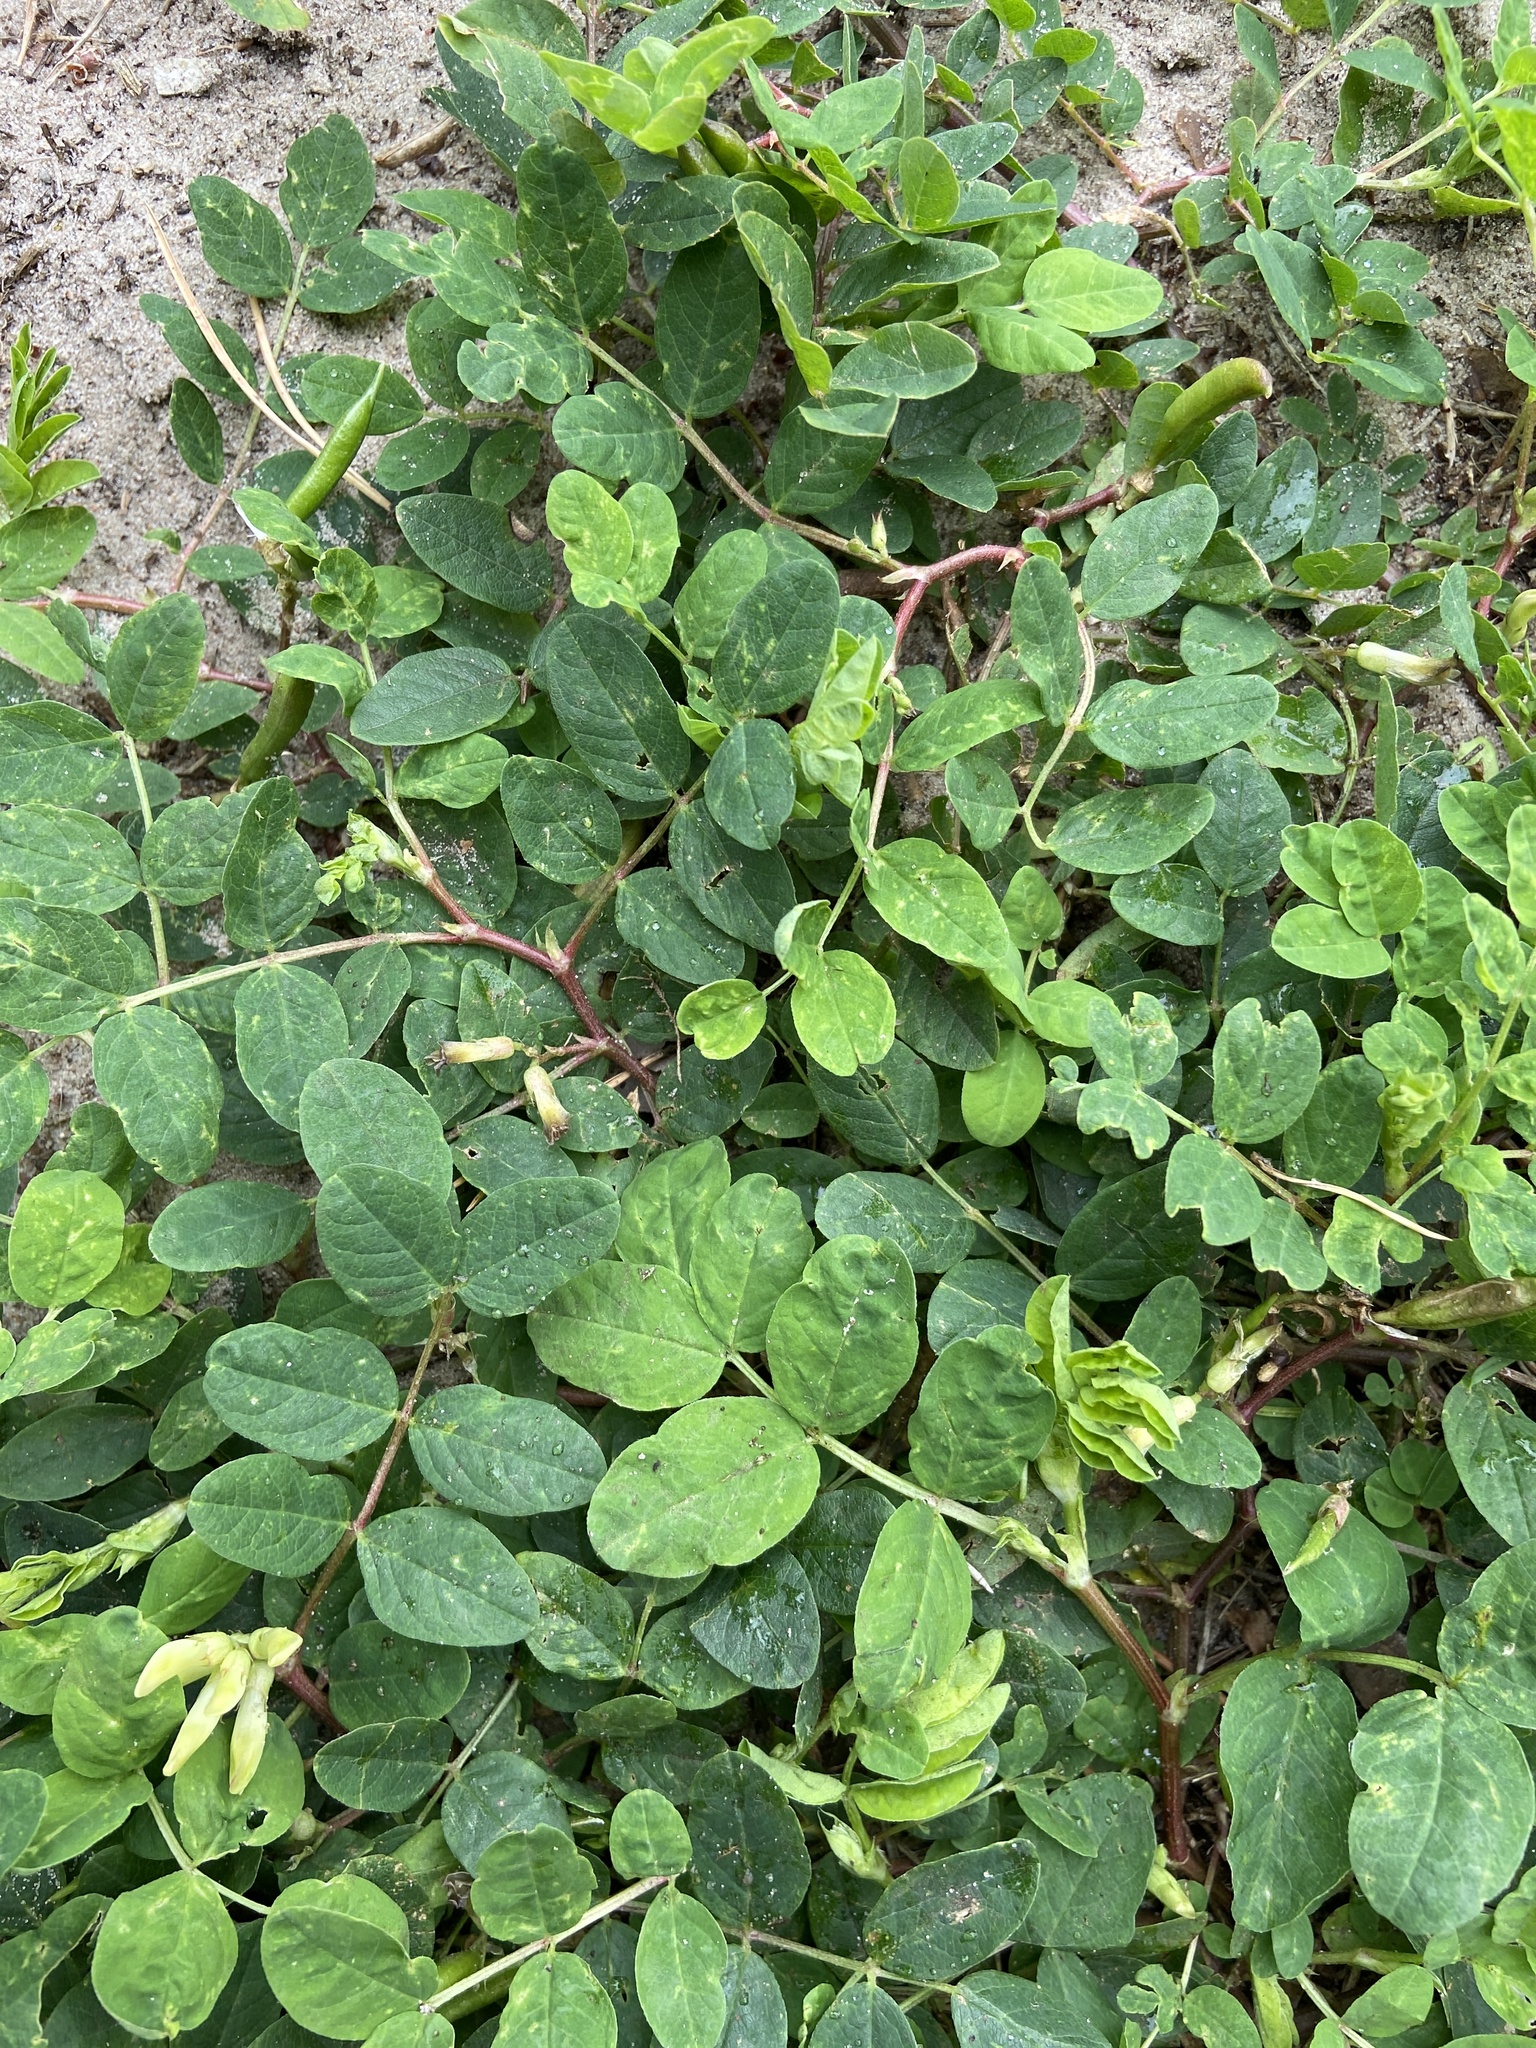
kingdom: Plantae
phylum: Tracheophyta
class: Magnoliopsida
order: Fabales
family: Fabaceae
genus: Astragalus
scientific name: Astragalus glycyphyllos
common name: Wild liquorice
